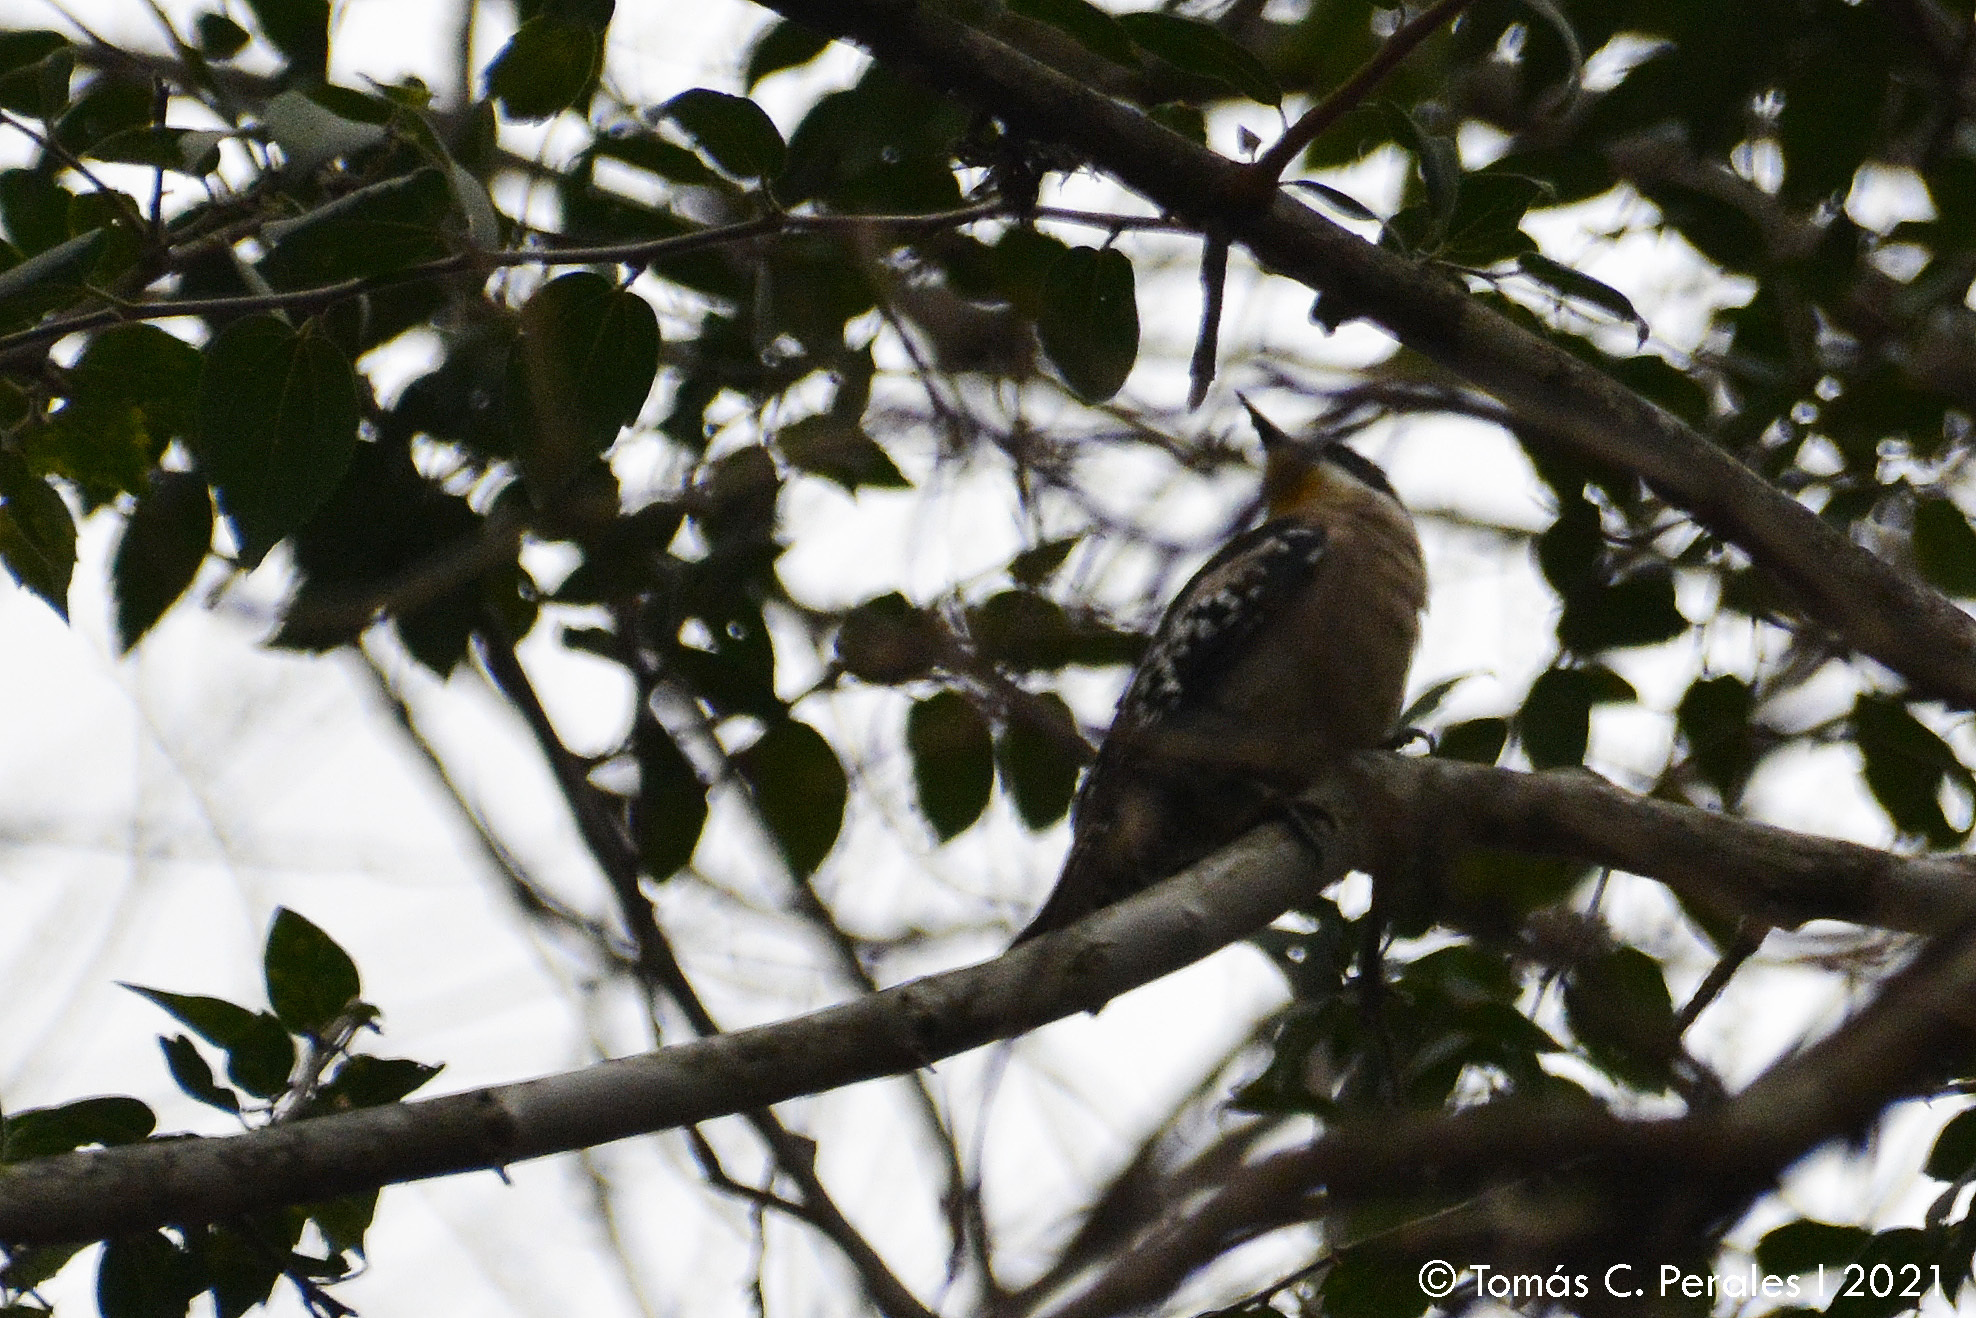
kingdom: Animalia
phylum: Chordata
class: Aves
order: Piciformes
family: Picidae
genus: Melanerpes
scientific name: Melanerpes cactorum
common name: White-fronted woodpecker
